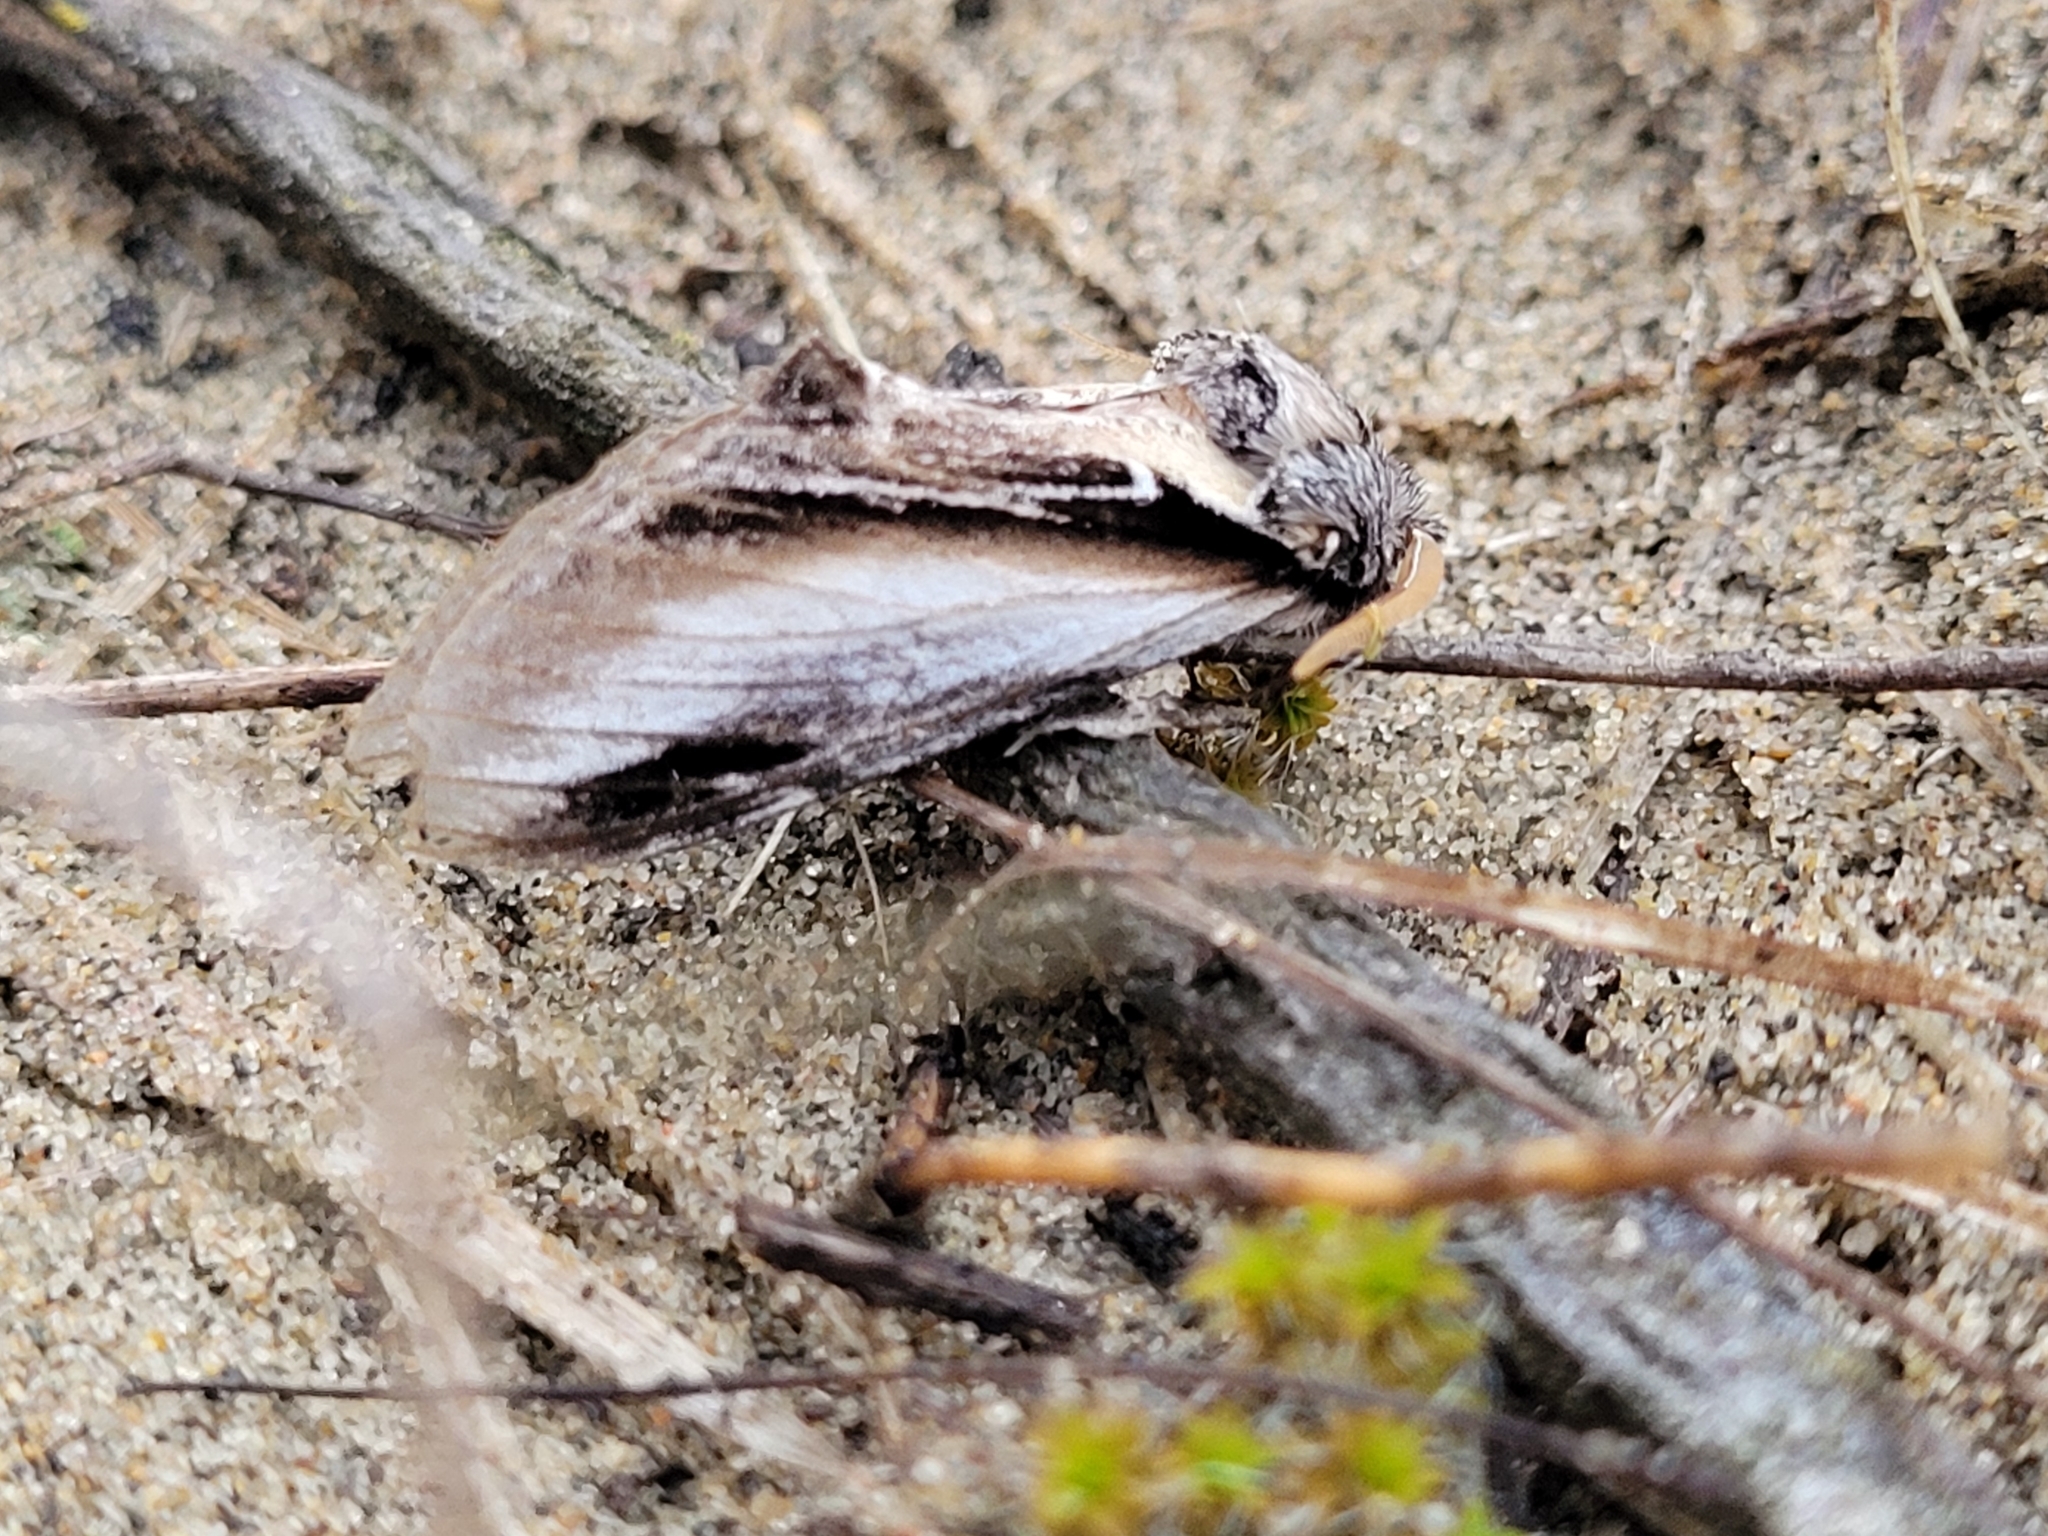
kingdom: Animalia
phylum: Arthropoda
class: Insecta
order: Lepidoptera
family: Notodontidae
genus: Pheosia
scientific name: Pheosia rimosa
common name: Black-rimmed prominent
